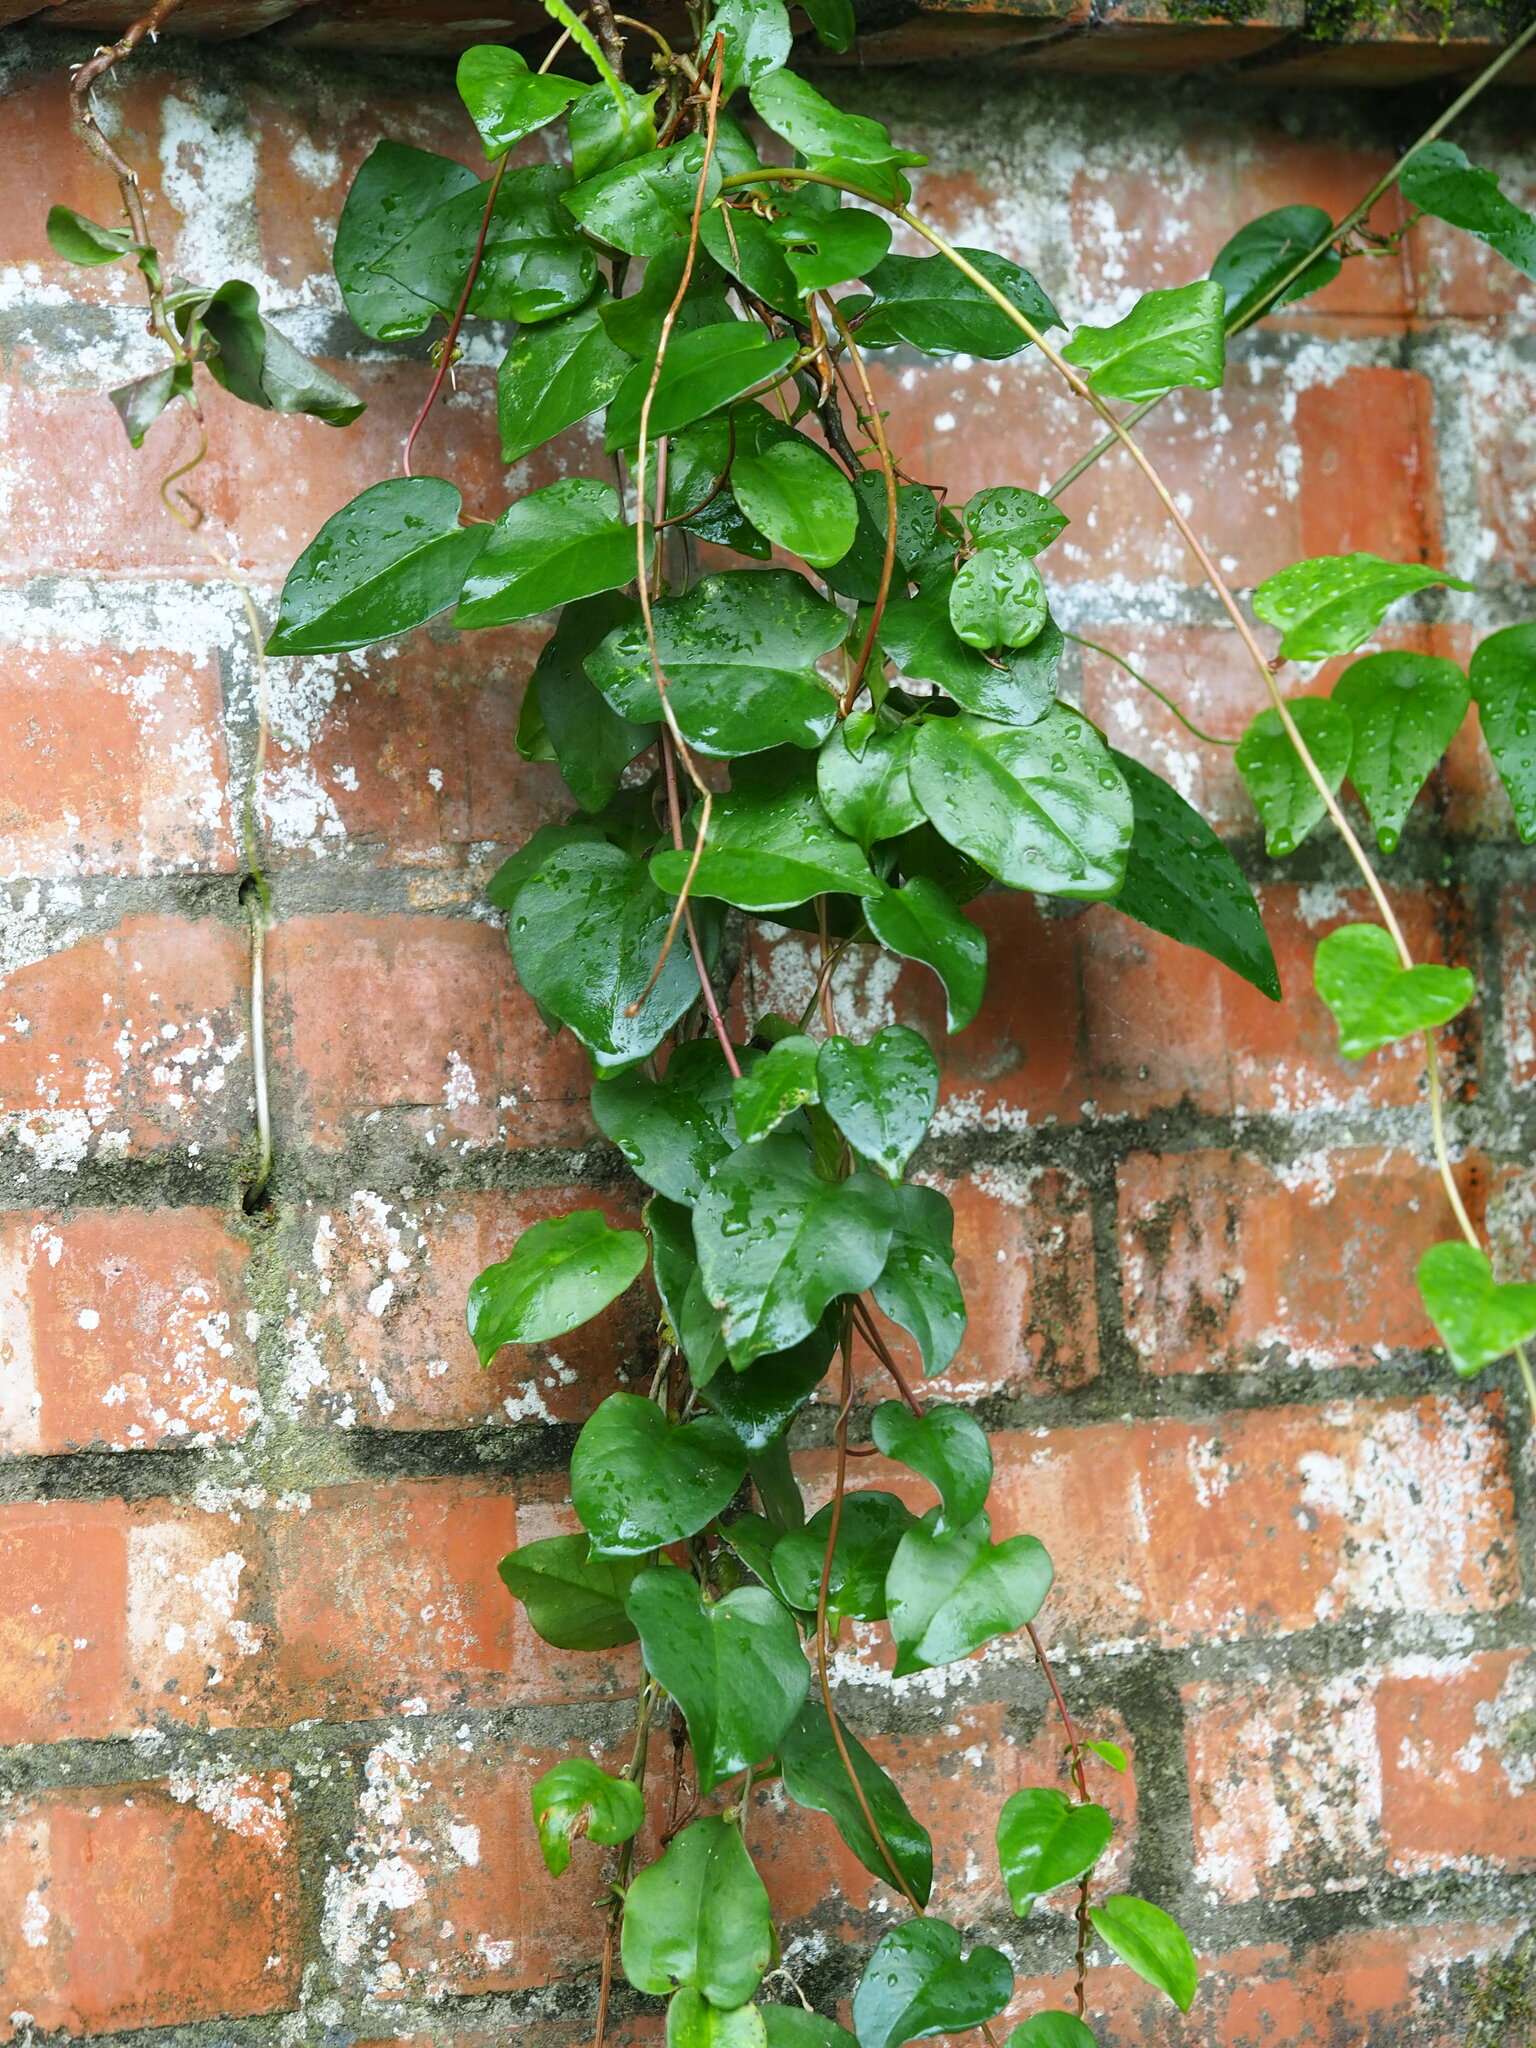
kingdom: Plantae
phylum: Tracheophyta
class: Magnoliopsida
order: Caryophyllales
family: Basellaceae
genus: Anredera
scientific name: Anredera cordifolia
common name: Heartleaf madeiravine
